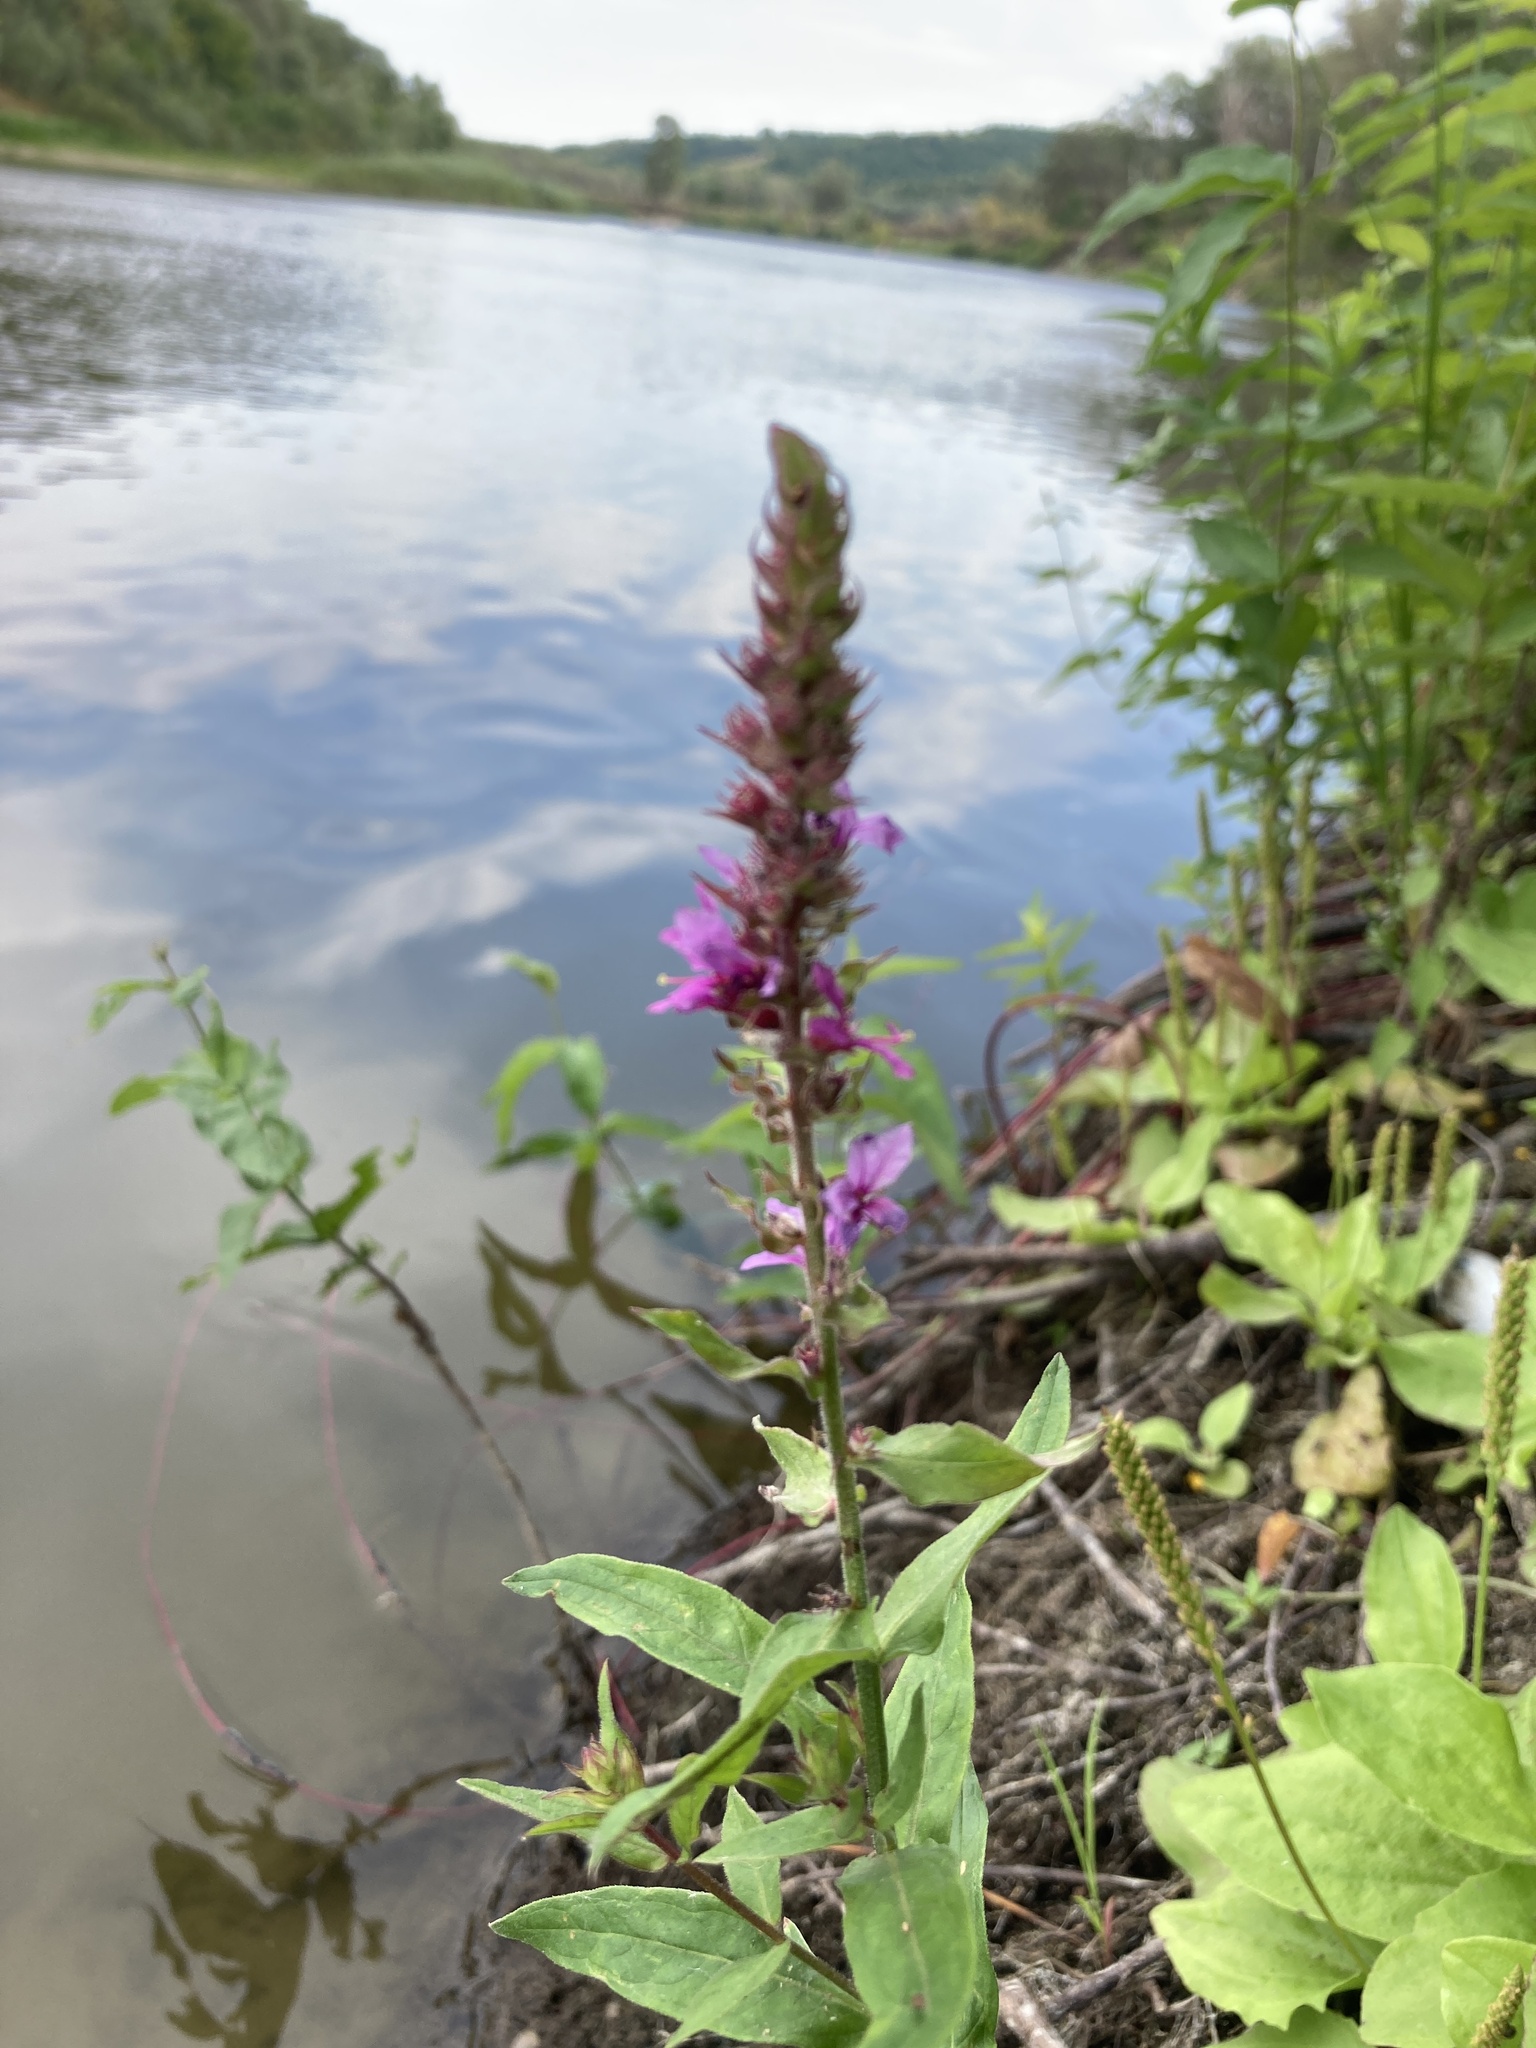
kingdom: Plantae
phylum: Tracheophyta
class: Magnoliopsida
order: Myrtales
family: Lythraceae
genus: Lythrum
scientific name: Lythrum salicaria
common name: Purple loosestrife
